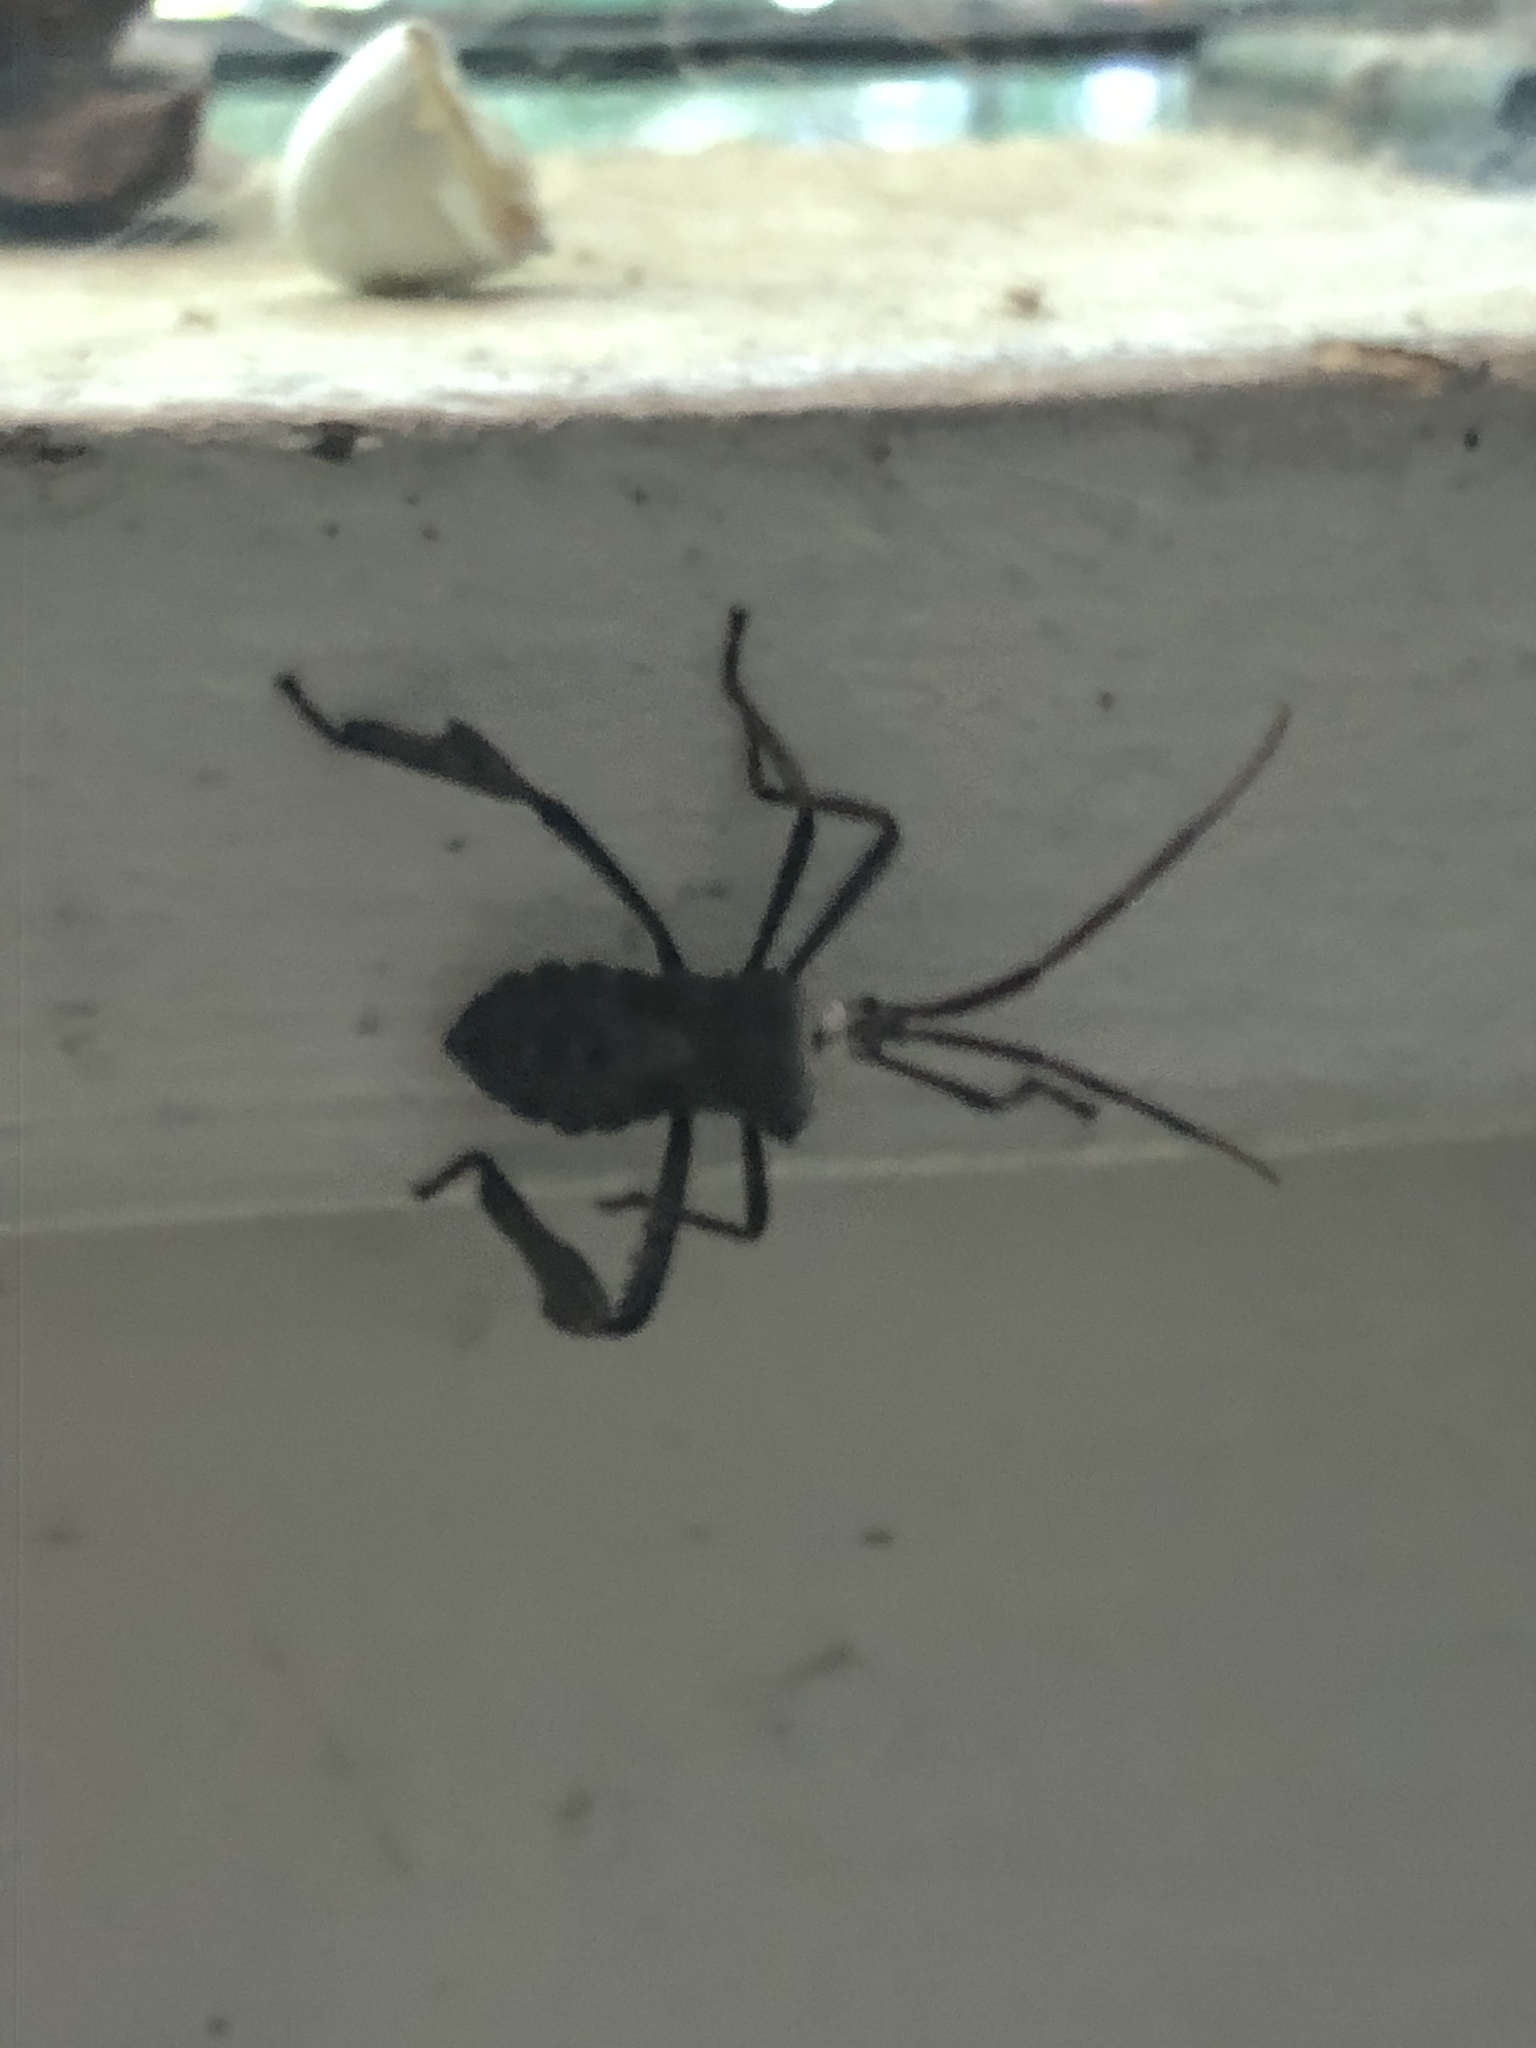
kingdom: Animalia
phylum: Arthropoda
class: Insecta
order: Hemiptera
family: Coreidae
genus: Acanthocephala
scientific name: Acanthocephala declivis
